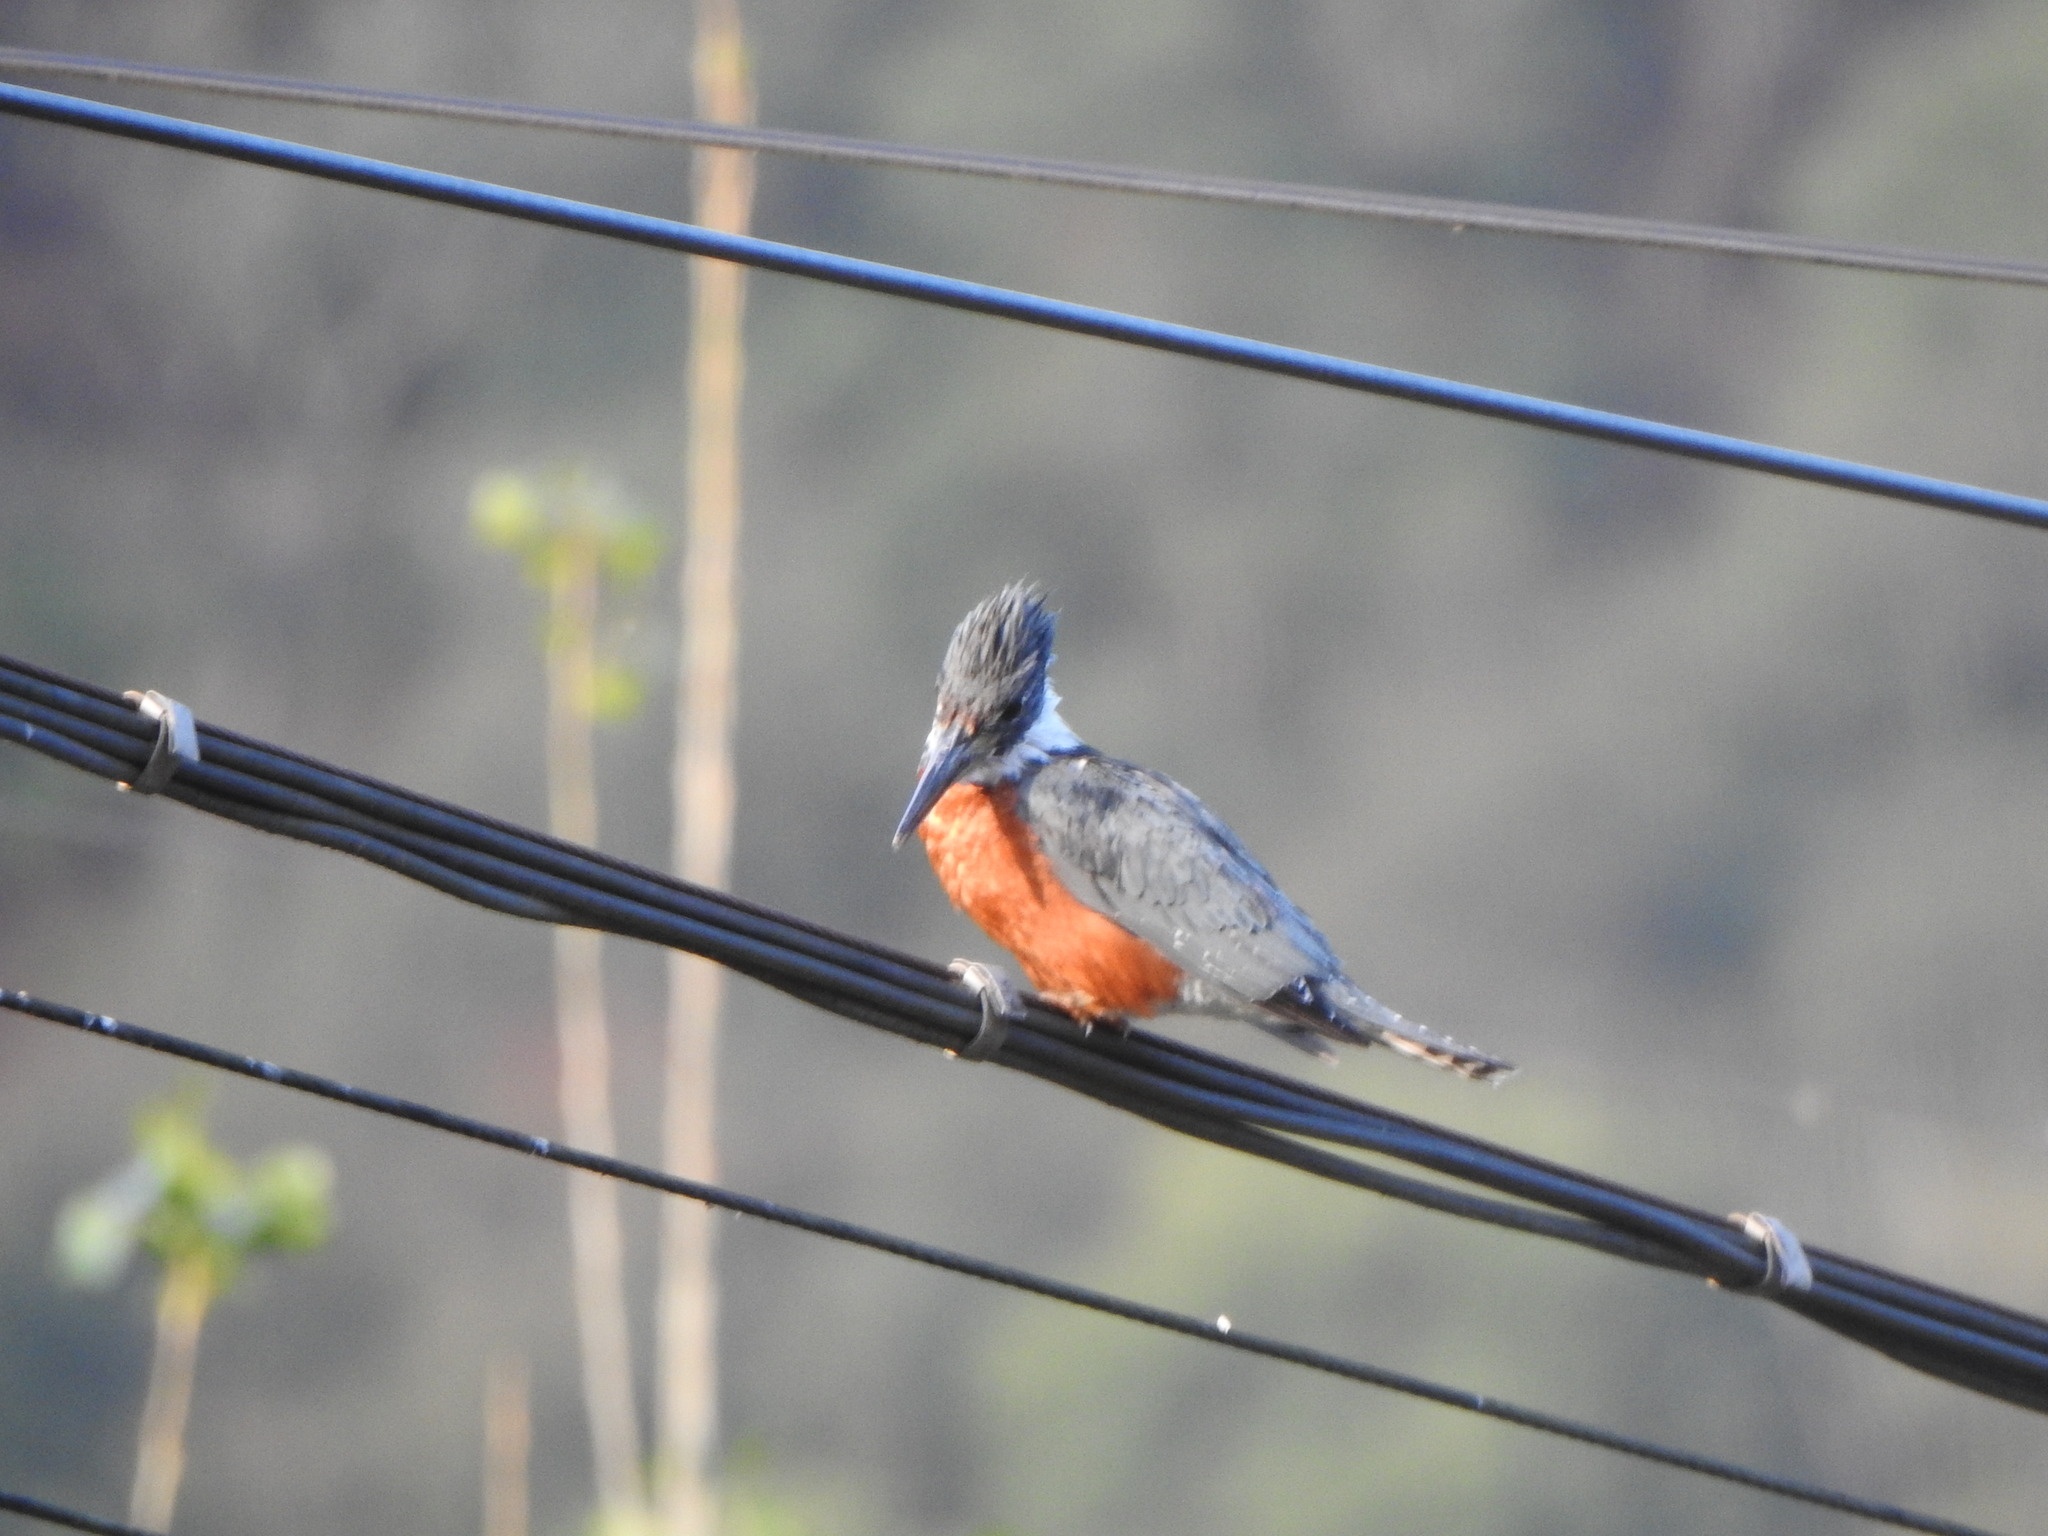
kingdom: Animalia
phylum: Chordata
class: Aves
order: Coraciiformes
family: Alcedinidae
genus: Megaceryle
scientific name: Megaceryle torquata
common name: Ringed kingfisher
